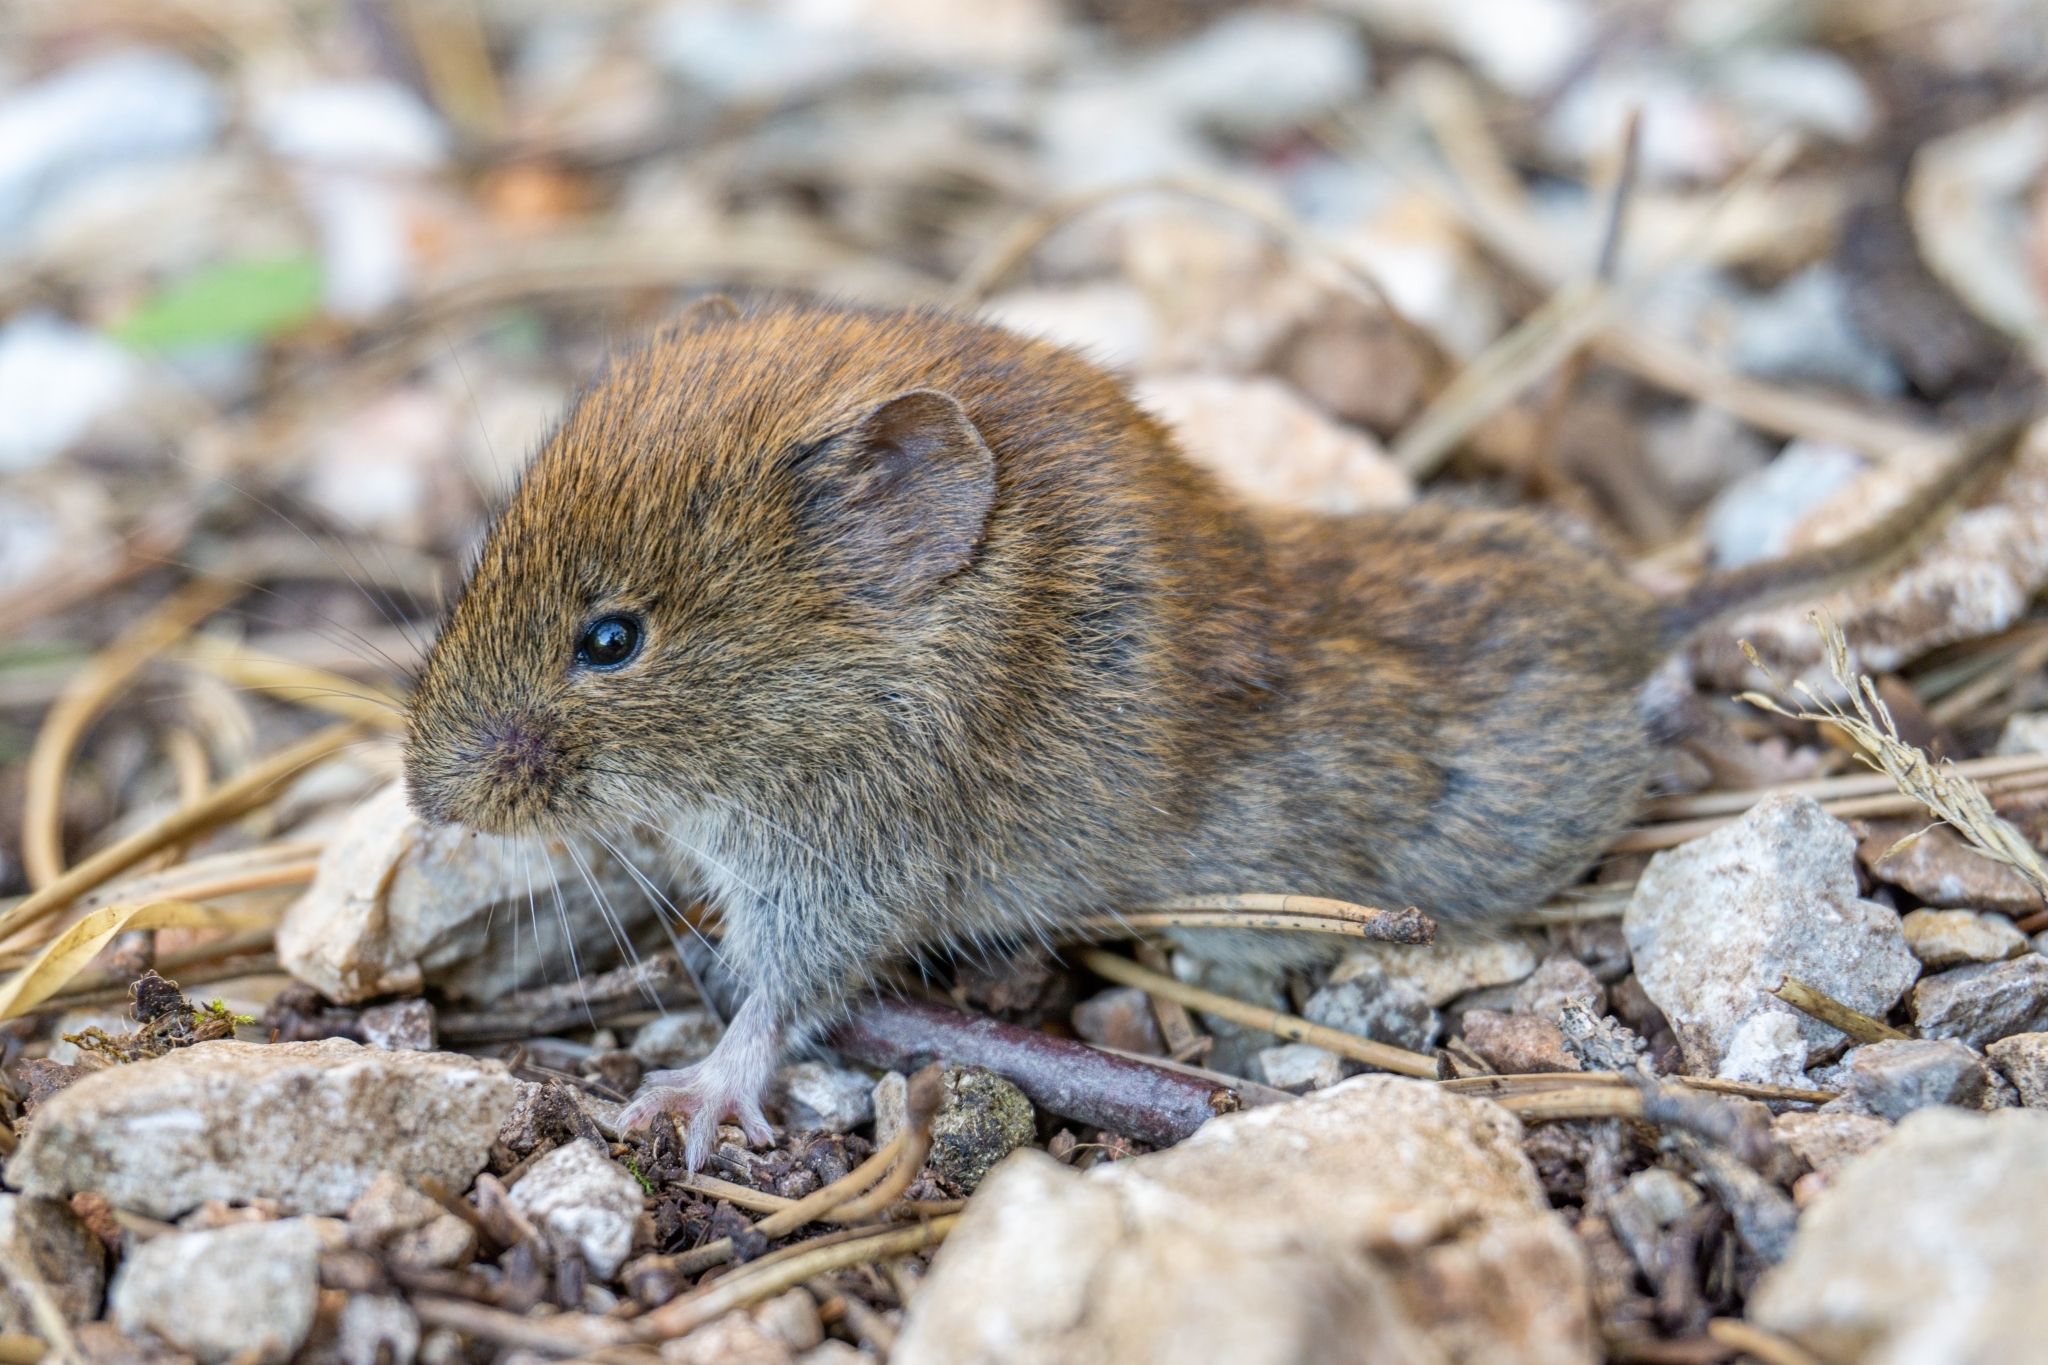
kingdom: Animalia
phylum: Chordata
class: Mammalia
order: Rodentia
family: Cricetidae
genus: Myodes
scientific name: Myodes glareolus
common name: Bank vole
